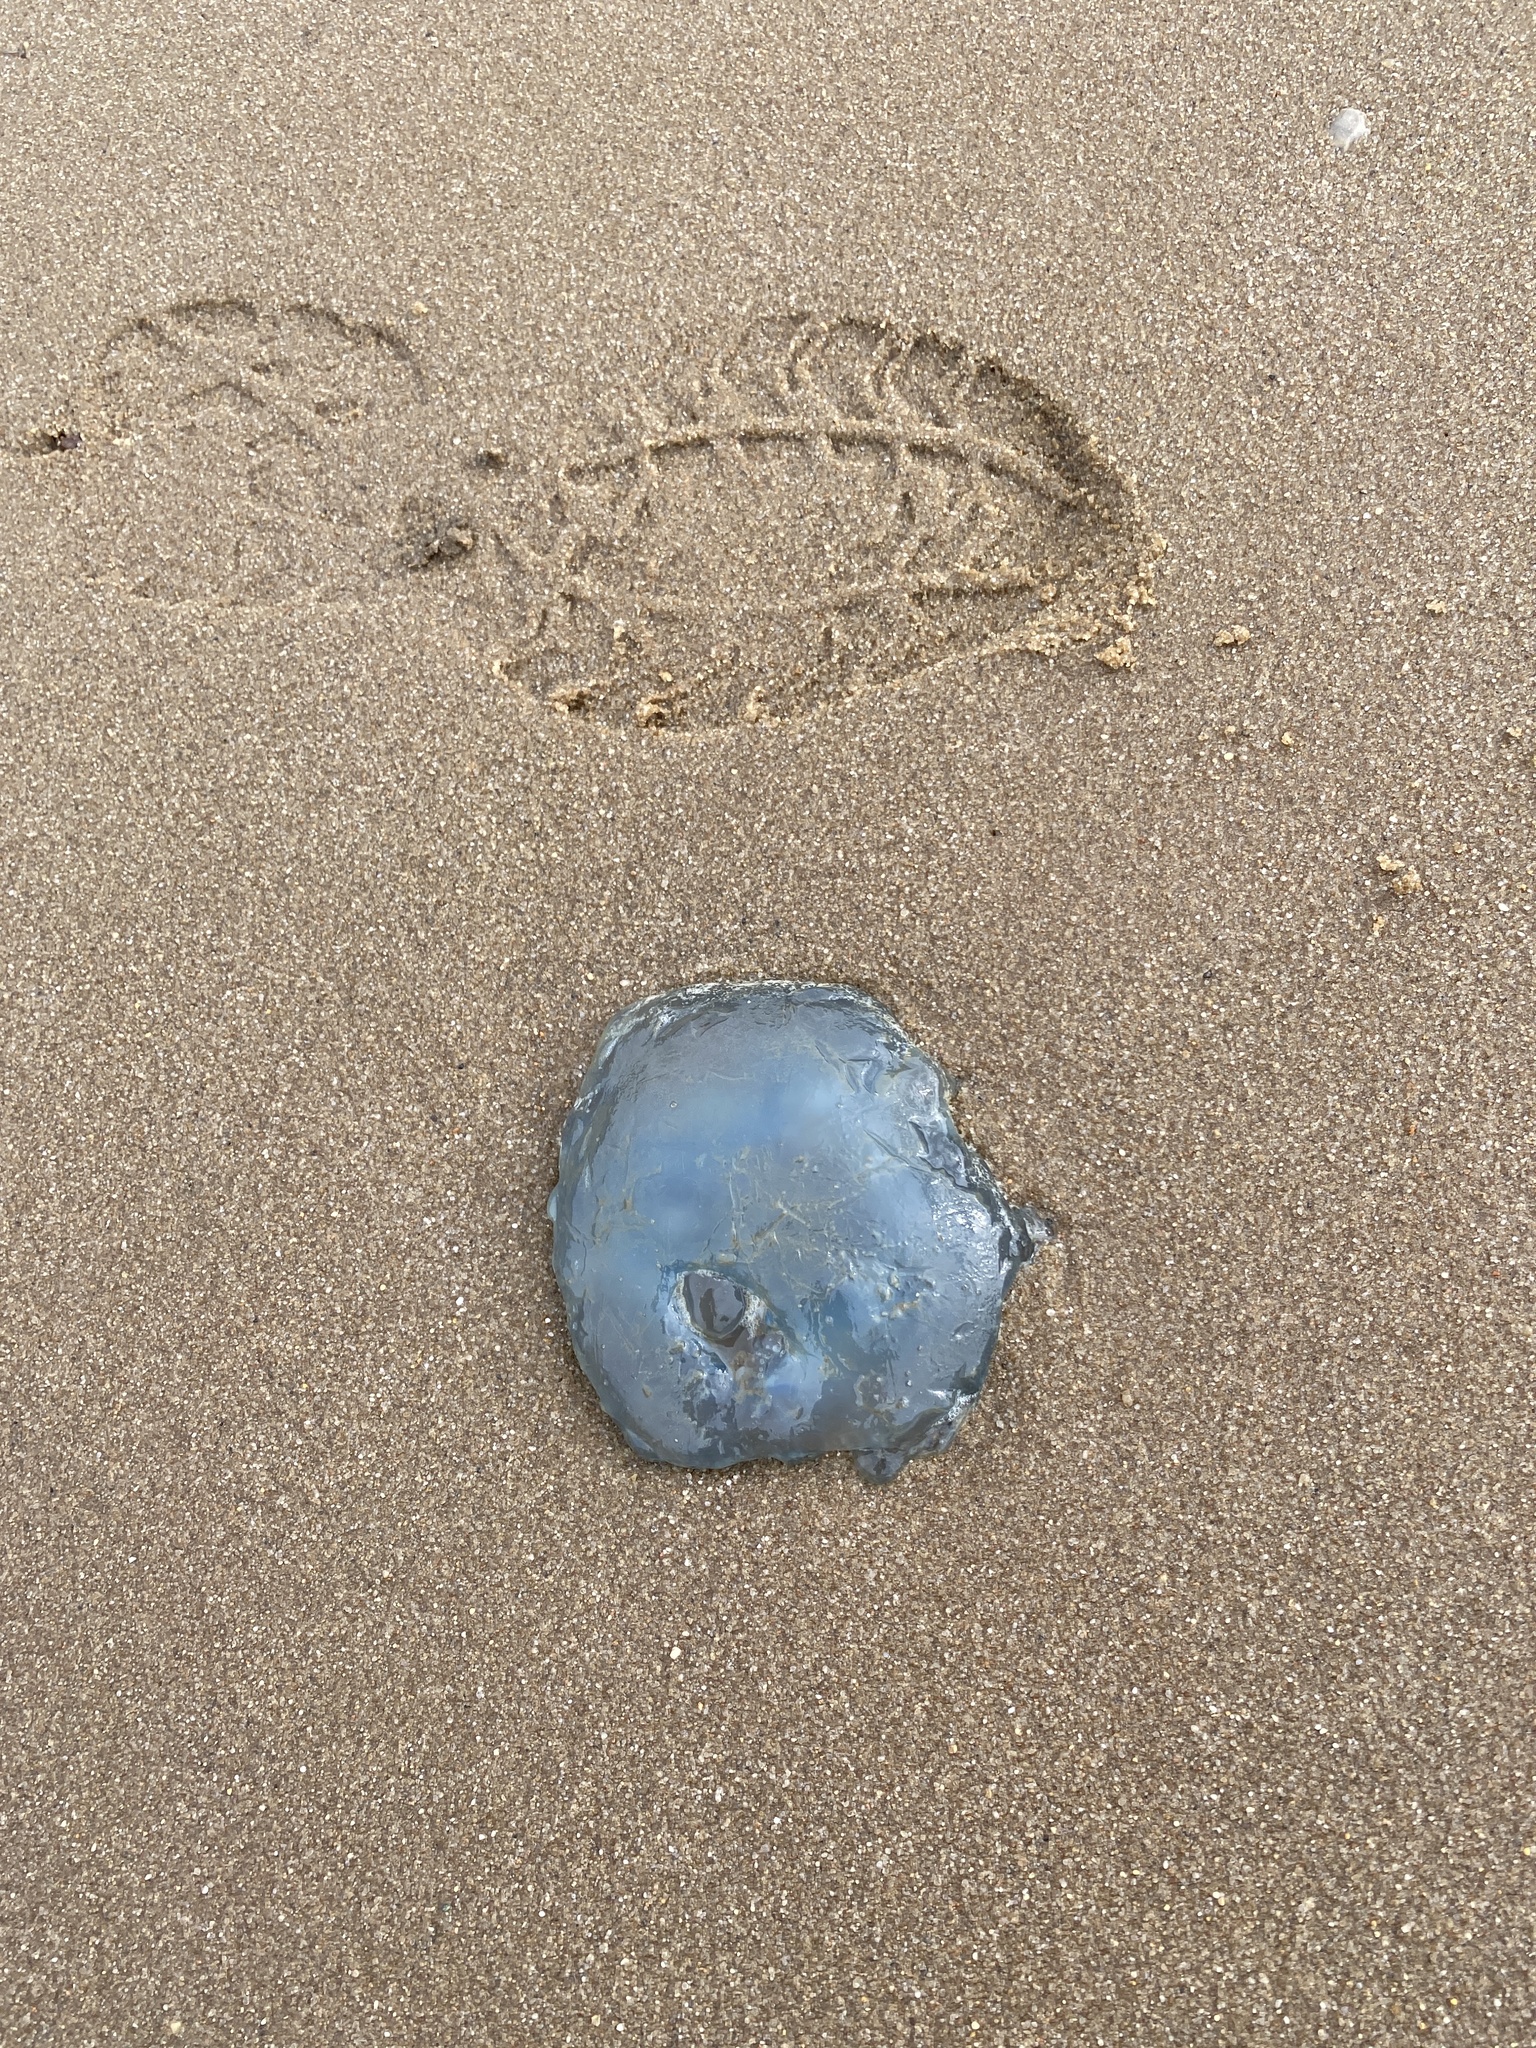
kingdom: Animalia
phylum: Cnidaria
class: Scyphozoa
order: Rhizostomeae
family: Rhizostomatidae
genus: Rhizostoma
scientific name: Rhizostoma octopus
